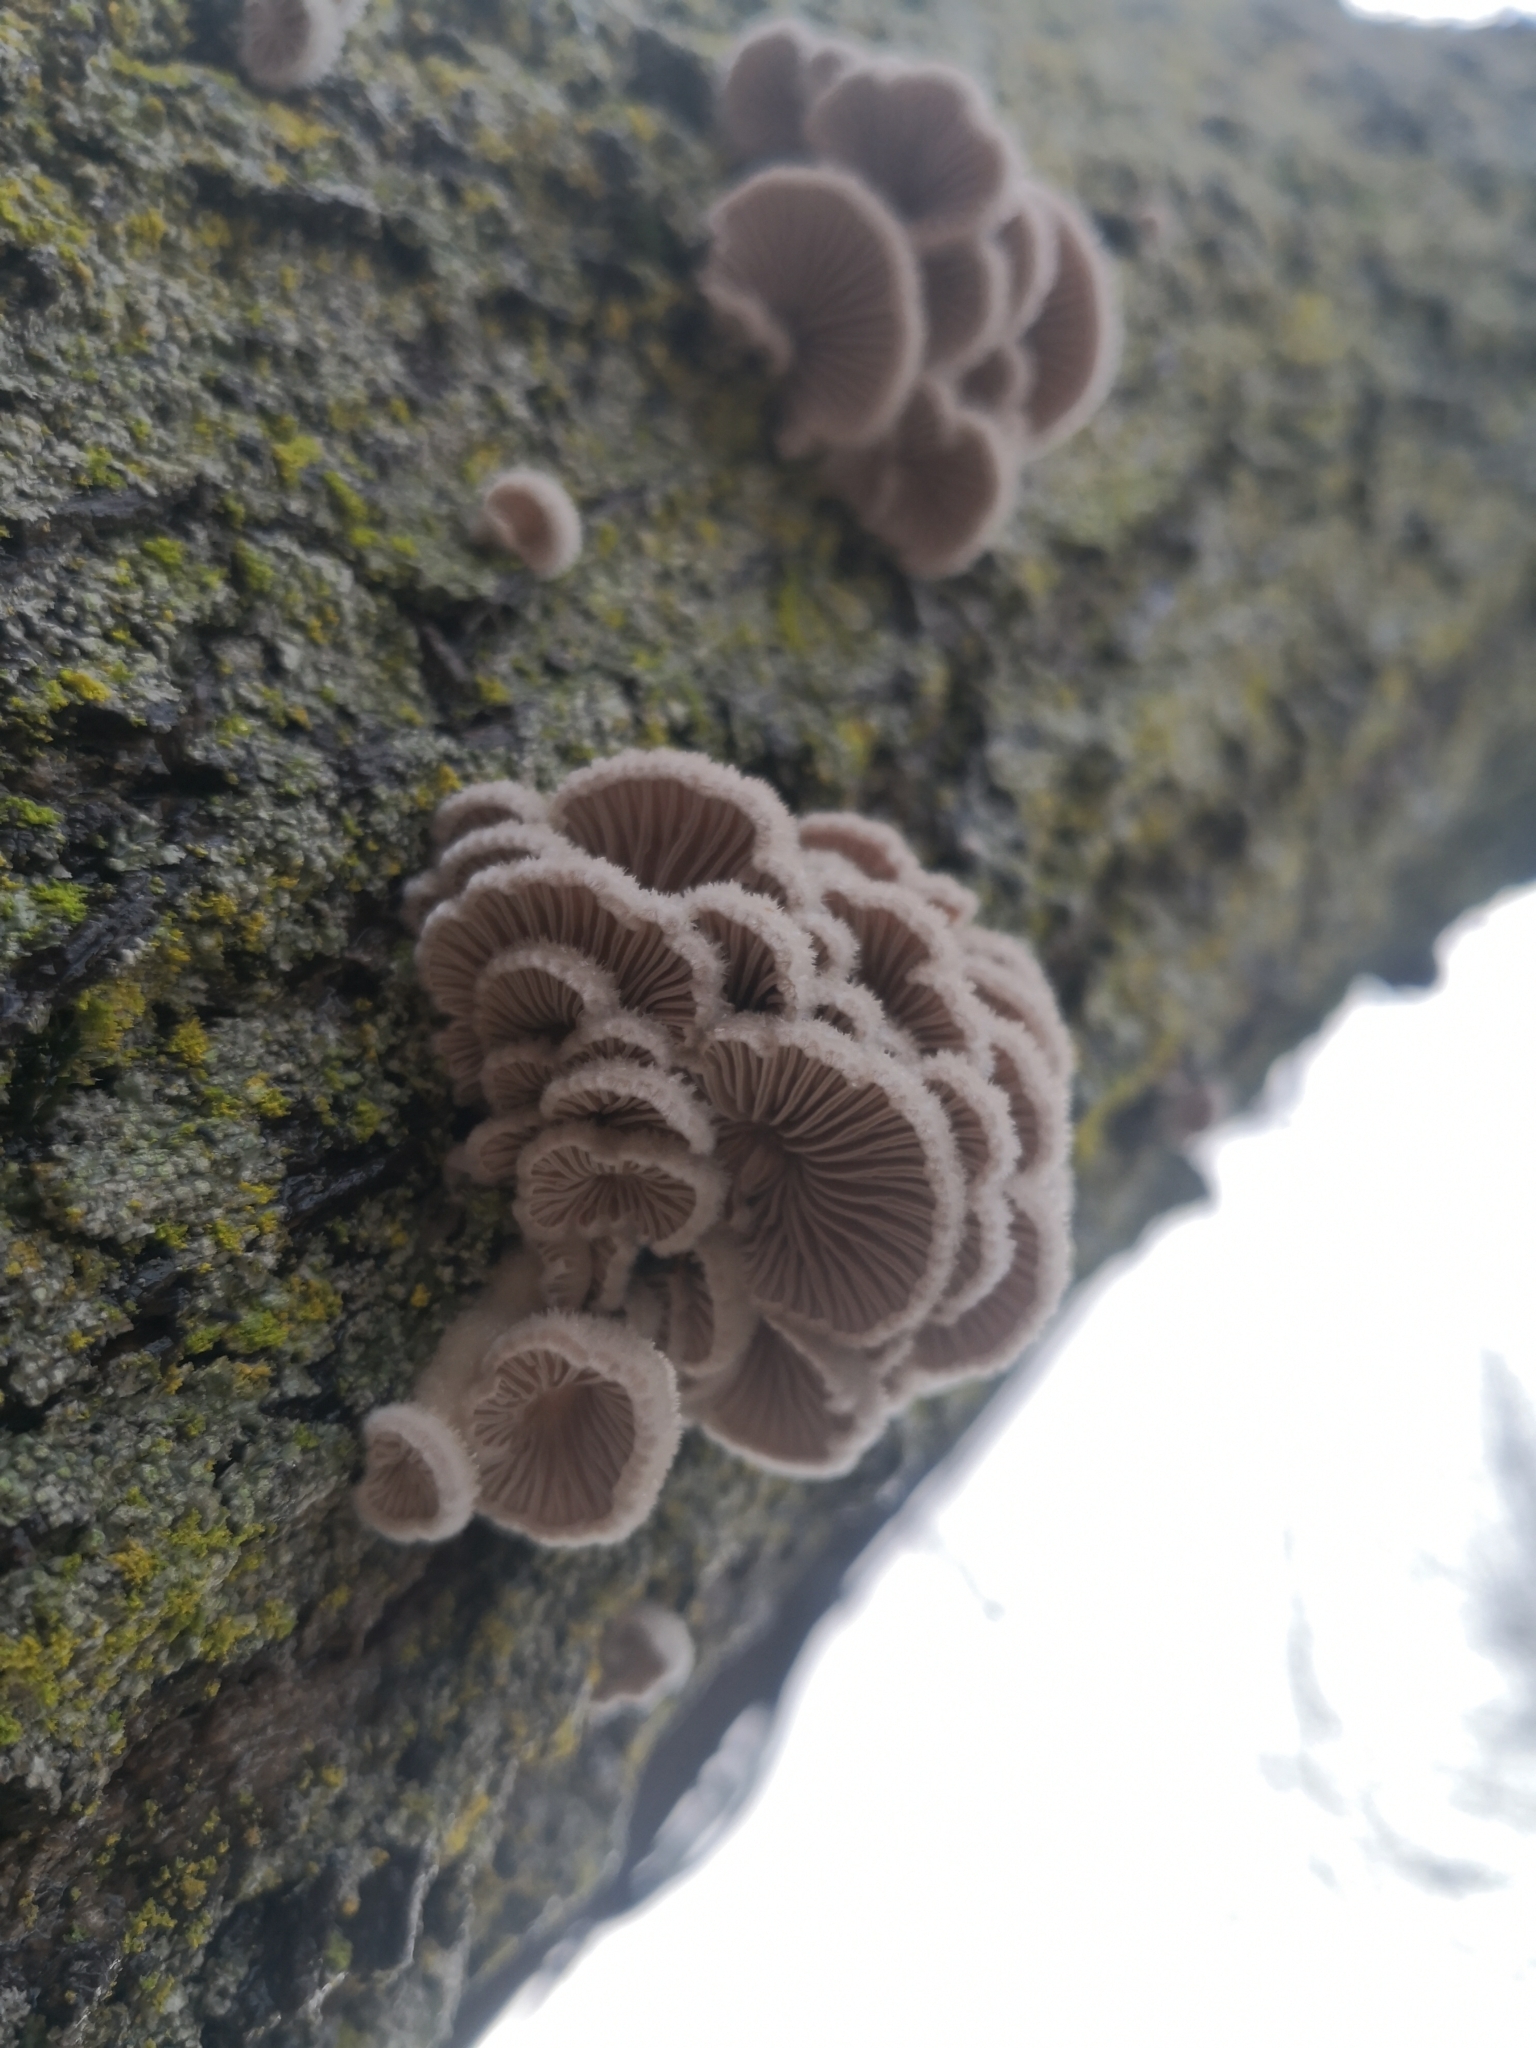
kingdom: Fungi
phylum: Basidiomycota
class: Agaricomycetes
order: Agaricales
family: Schizophyllaceae
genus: Schizophyllum
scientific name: Schizophyllum commune
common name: Common porecrust
